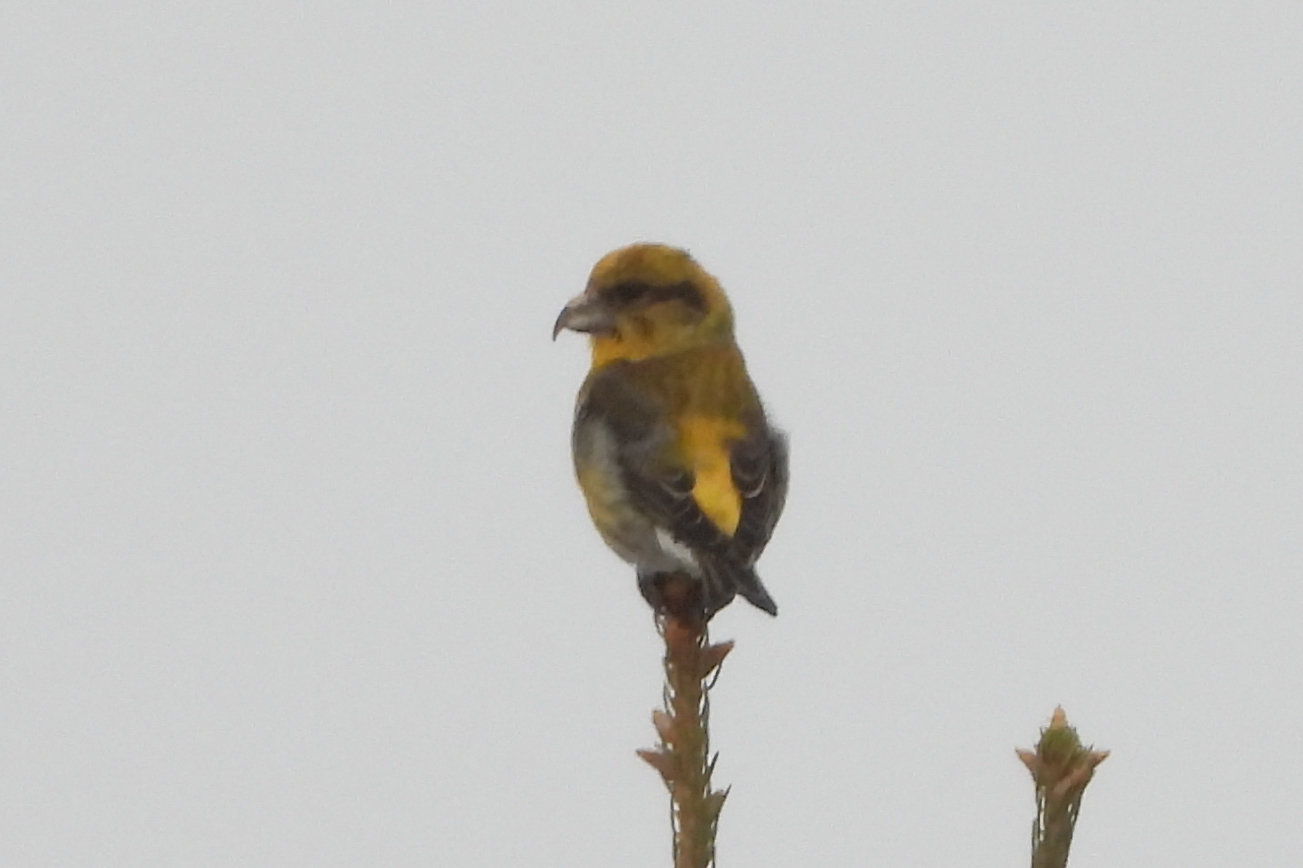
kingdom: Animalia
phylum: Chordata
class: Aves
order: Passeriformes
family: Fringillidae
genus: Loxia
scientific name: Loxia curvirostra
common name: Red crossbill
